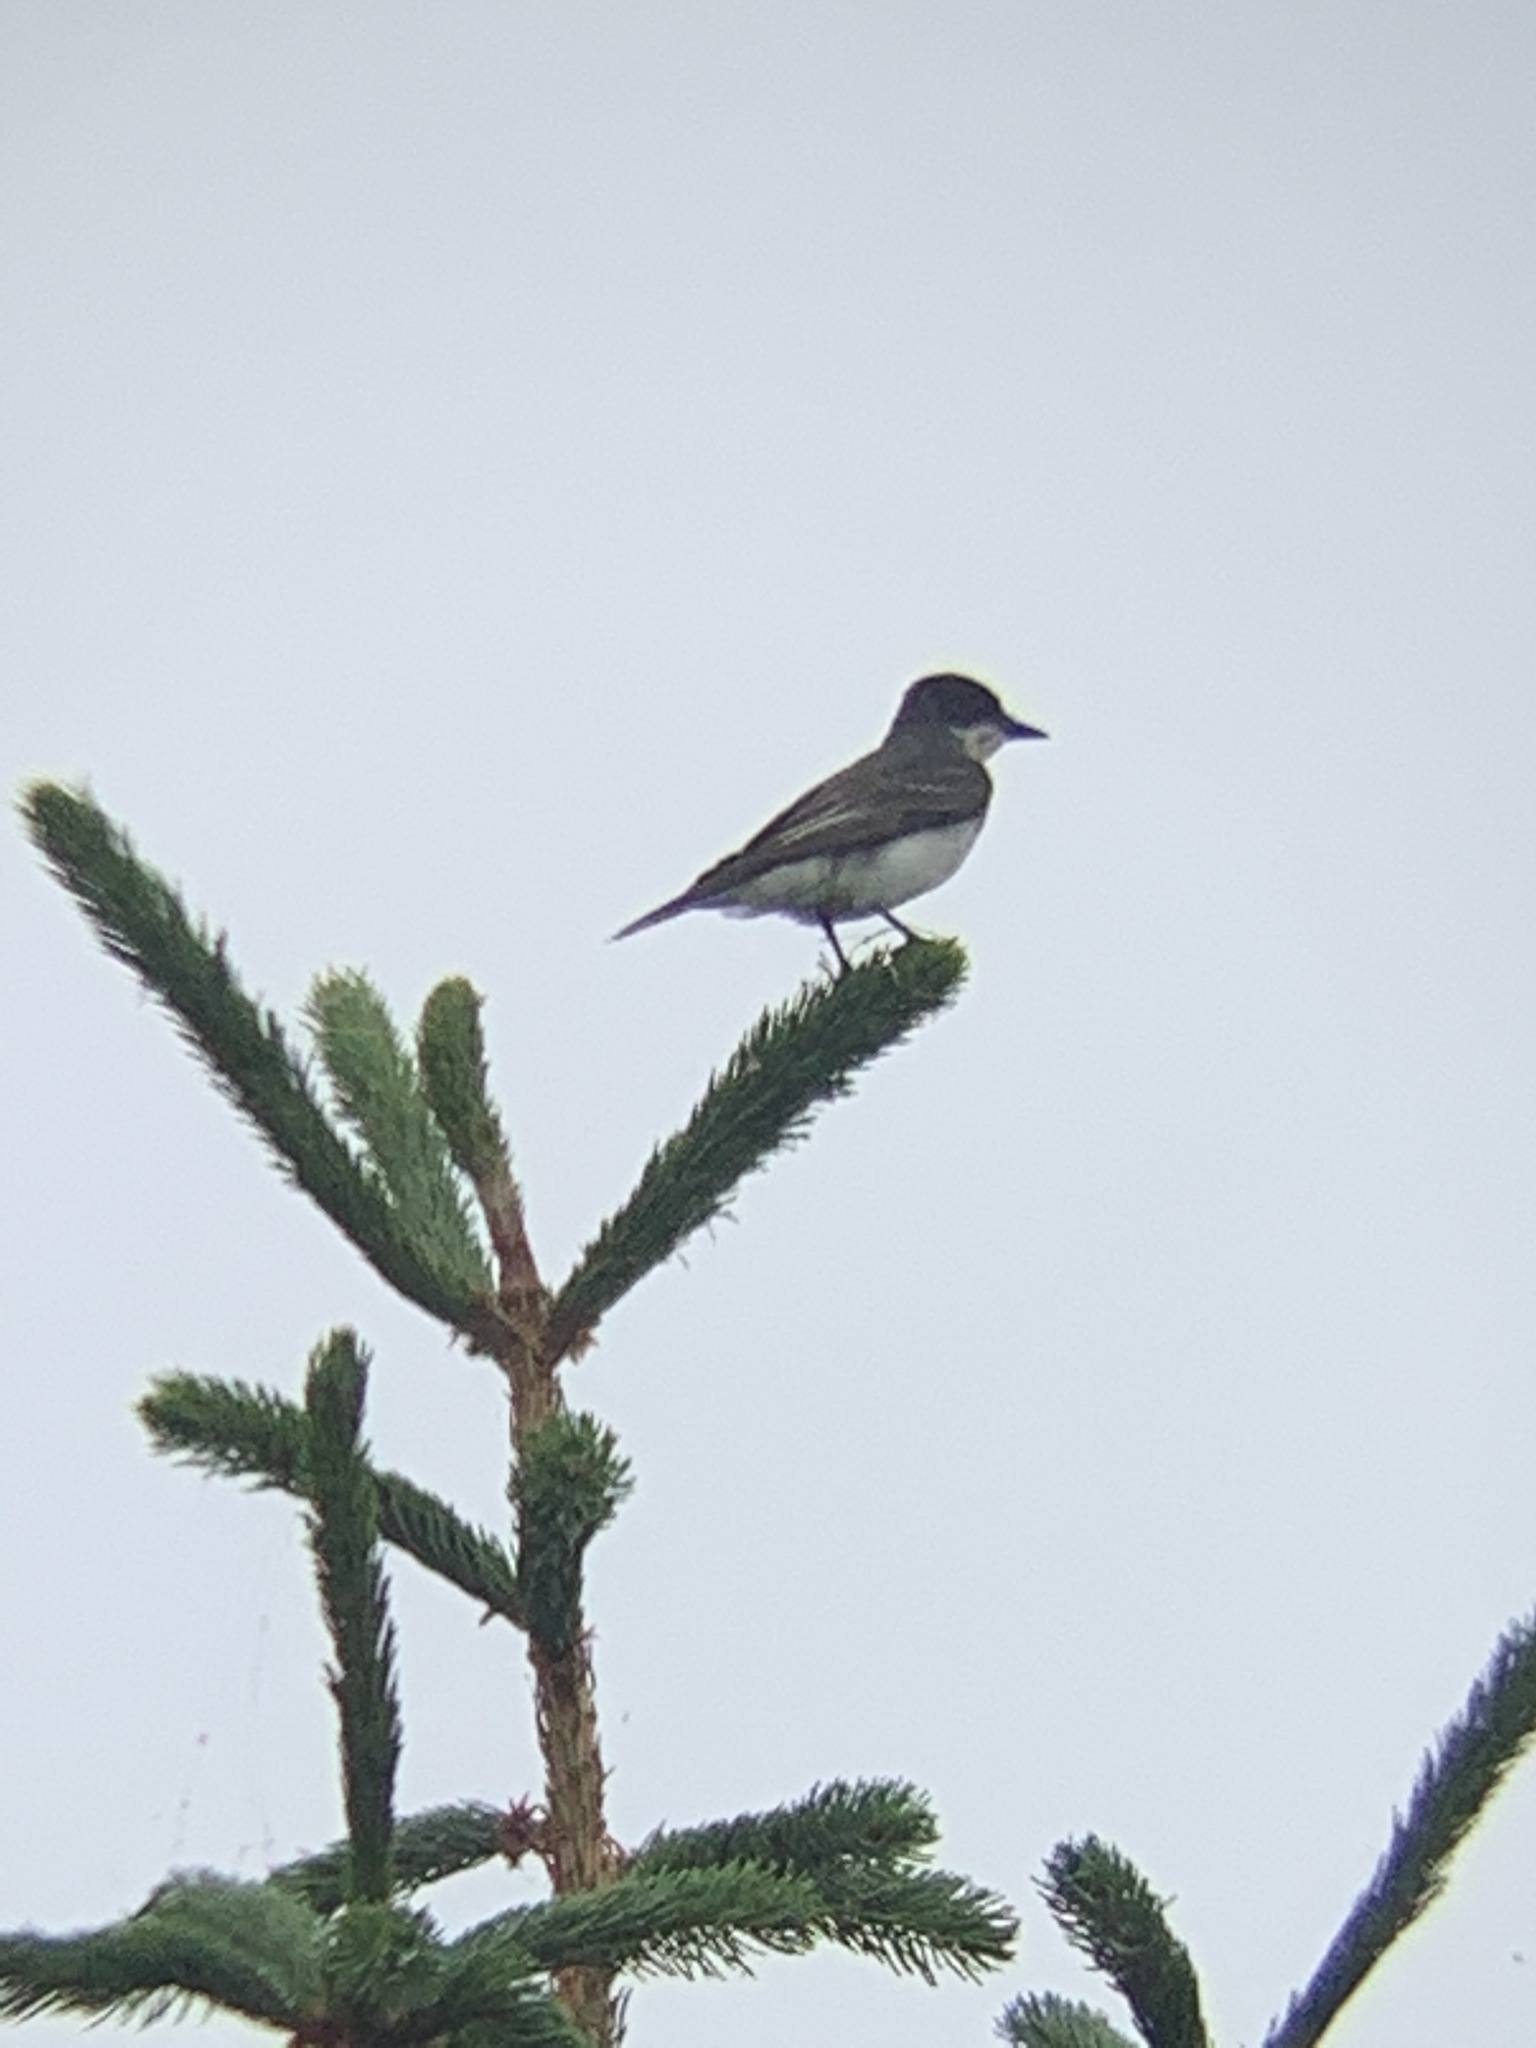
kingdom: Animalia
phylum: Chordata
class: Aves
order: Passeriformes
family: Tyrannidae
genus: Tyrannus
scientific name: Tyrannus tyrannus
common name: Eastern kingbird
